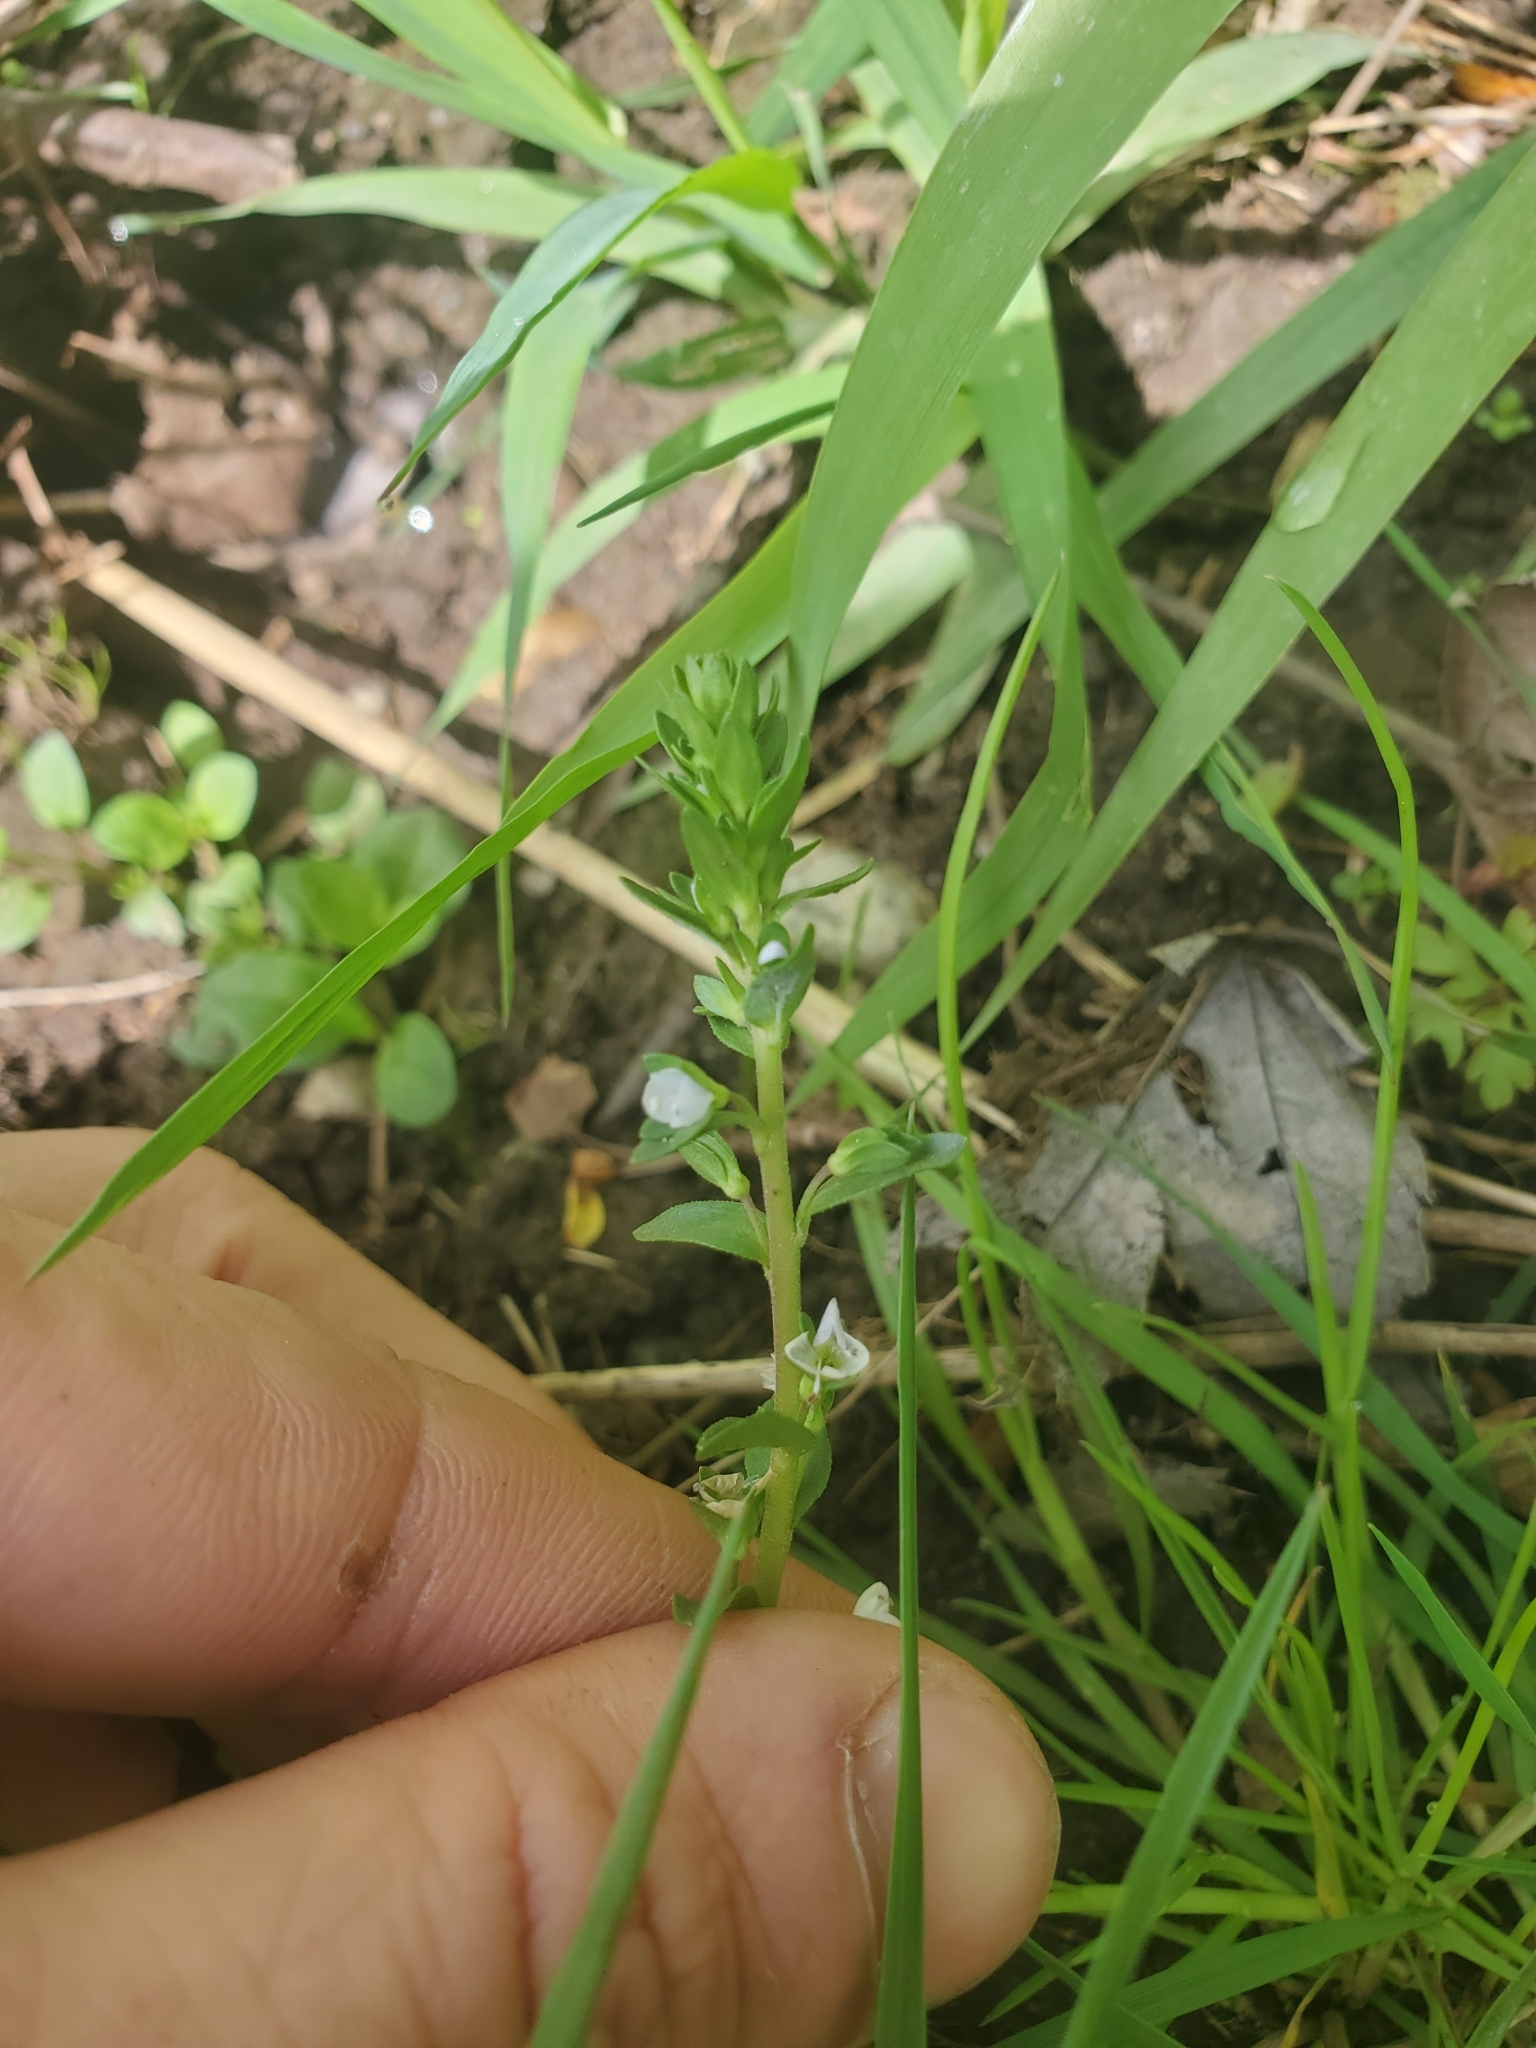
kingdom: Plantae
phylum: Tracheophyta
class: Magnoliopsida
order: Lamiales
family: Plantaginaceae
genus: Veronica
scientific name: Veronica serpyllifolia
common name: Thyme-leaved speedwell
